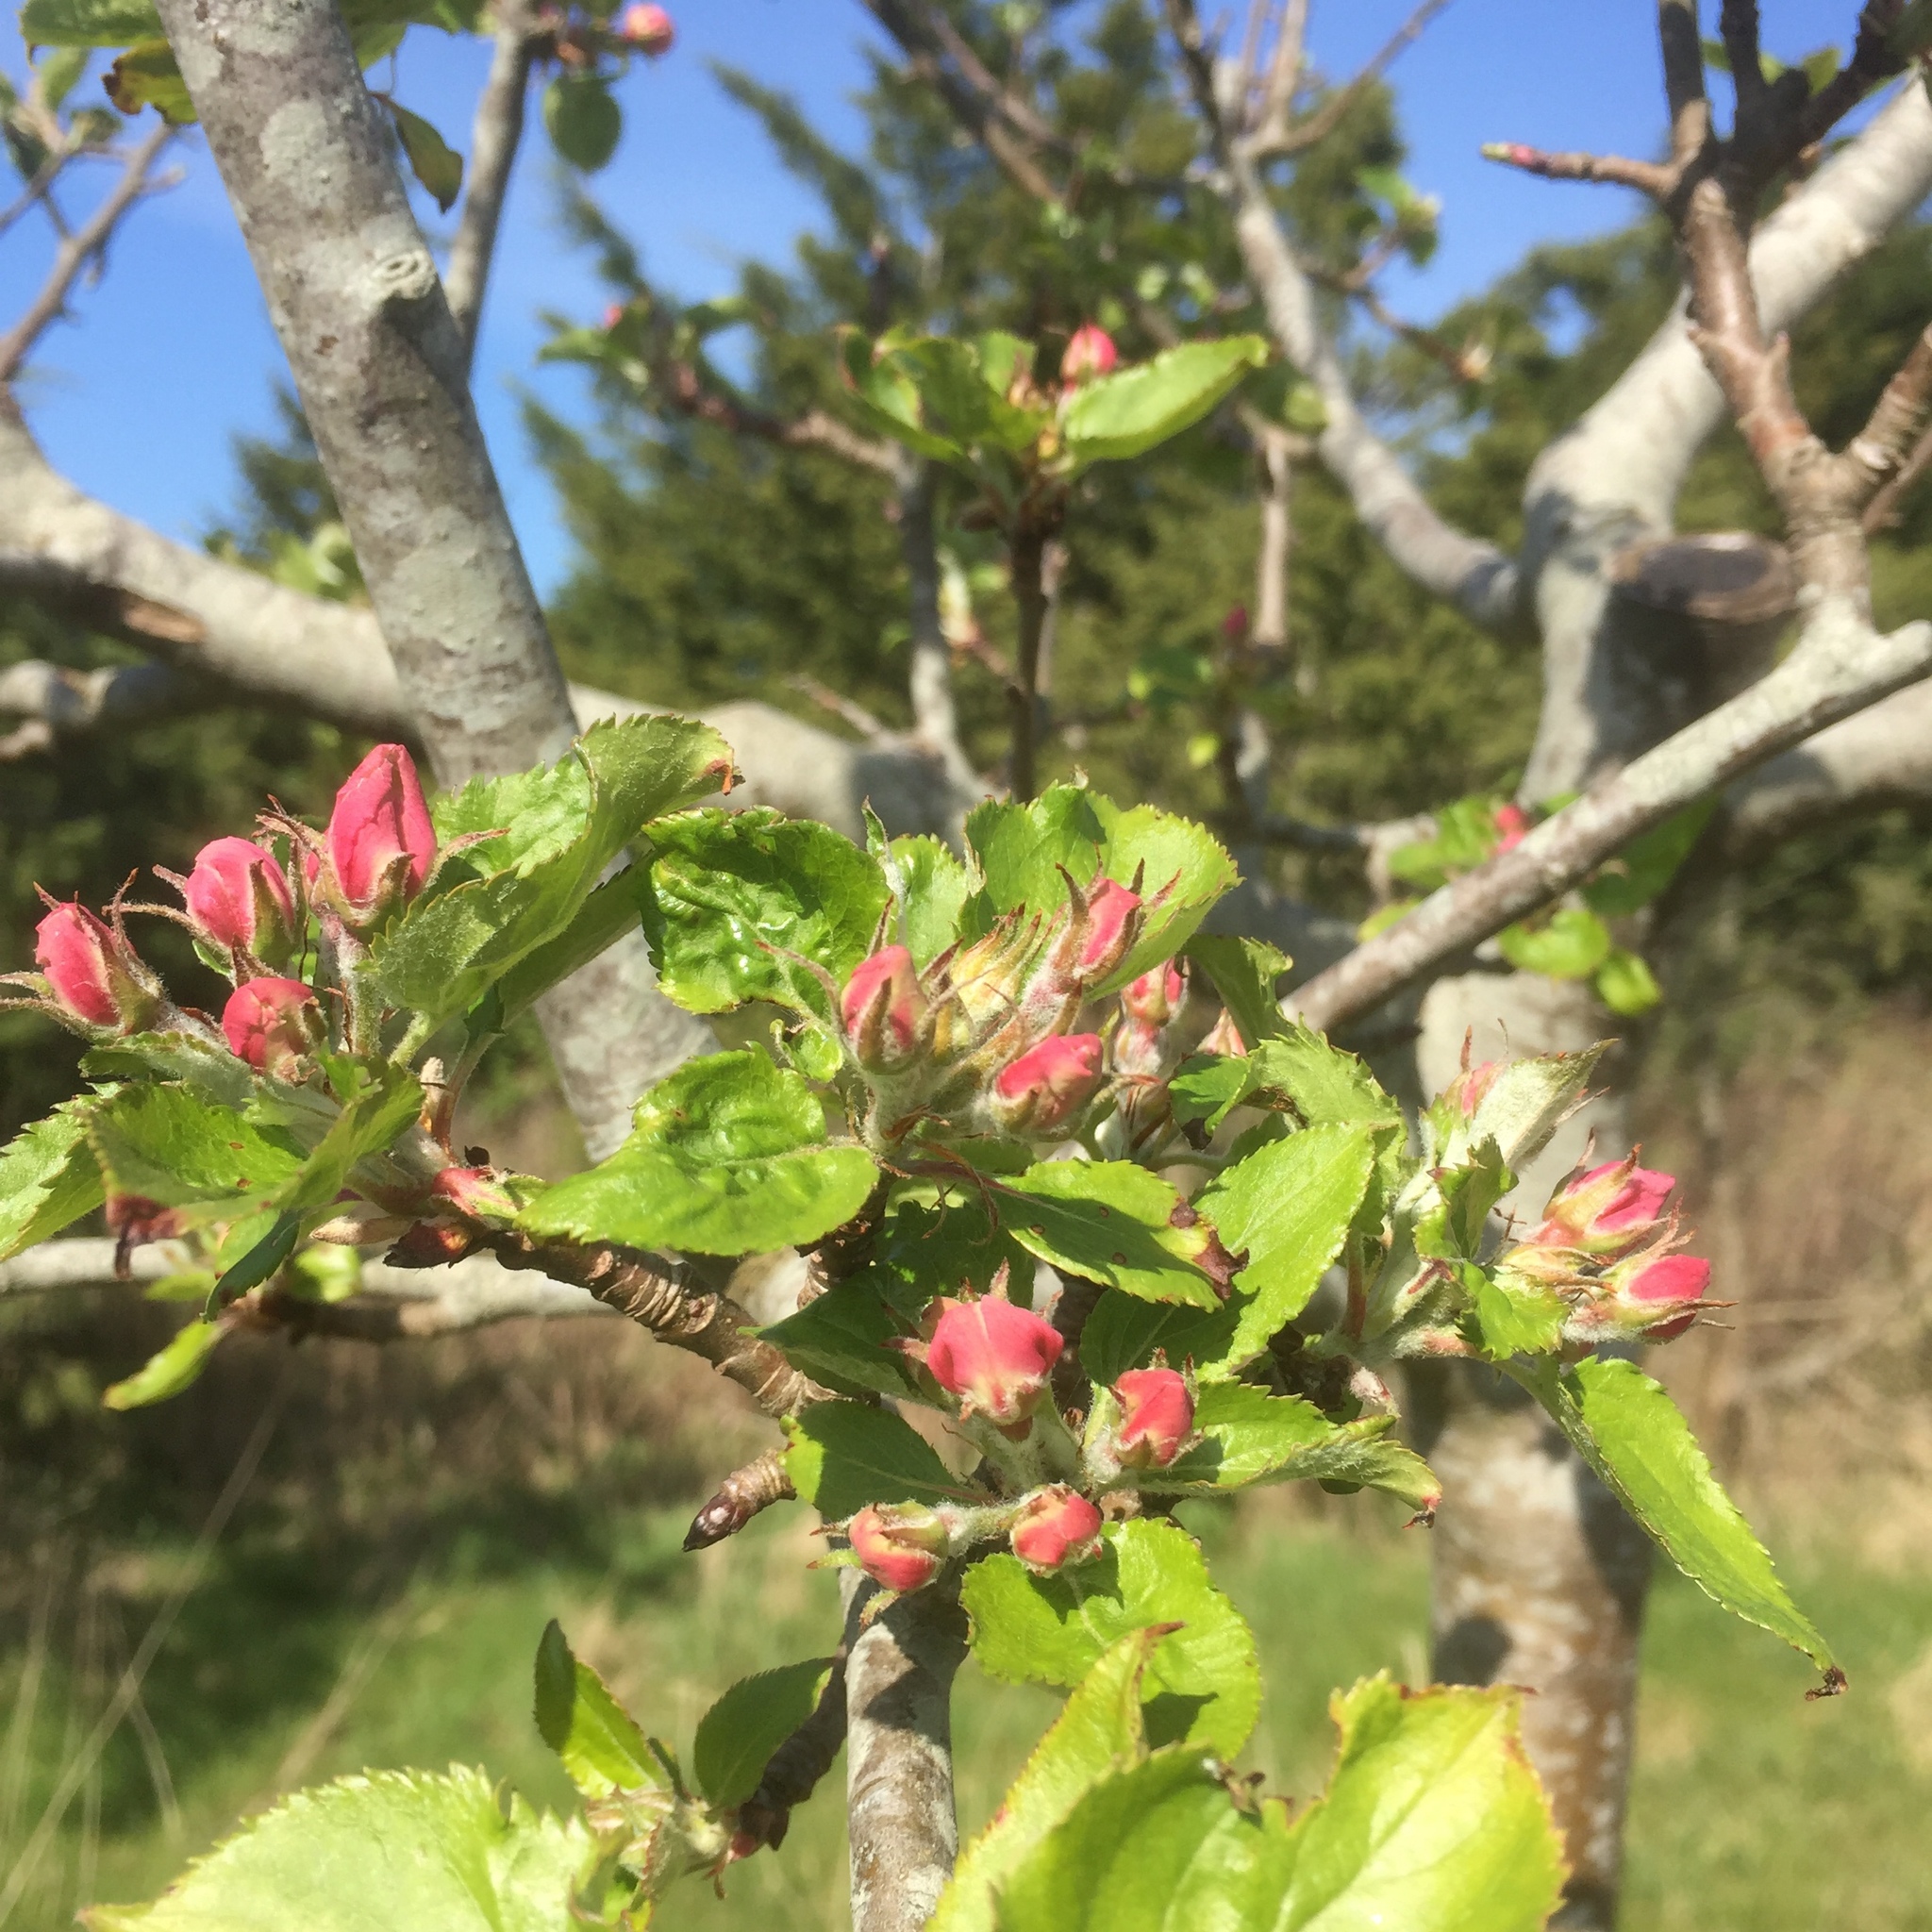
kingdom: Plantae
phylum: Tracheophyta
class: Magnoliopsida
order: Rosales
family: Rosaceae
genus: Malus
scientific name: Malus domestica
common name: Apple
